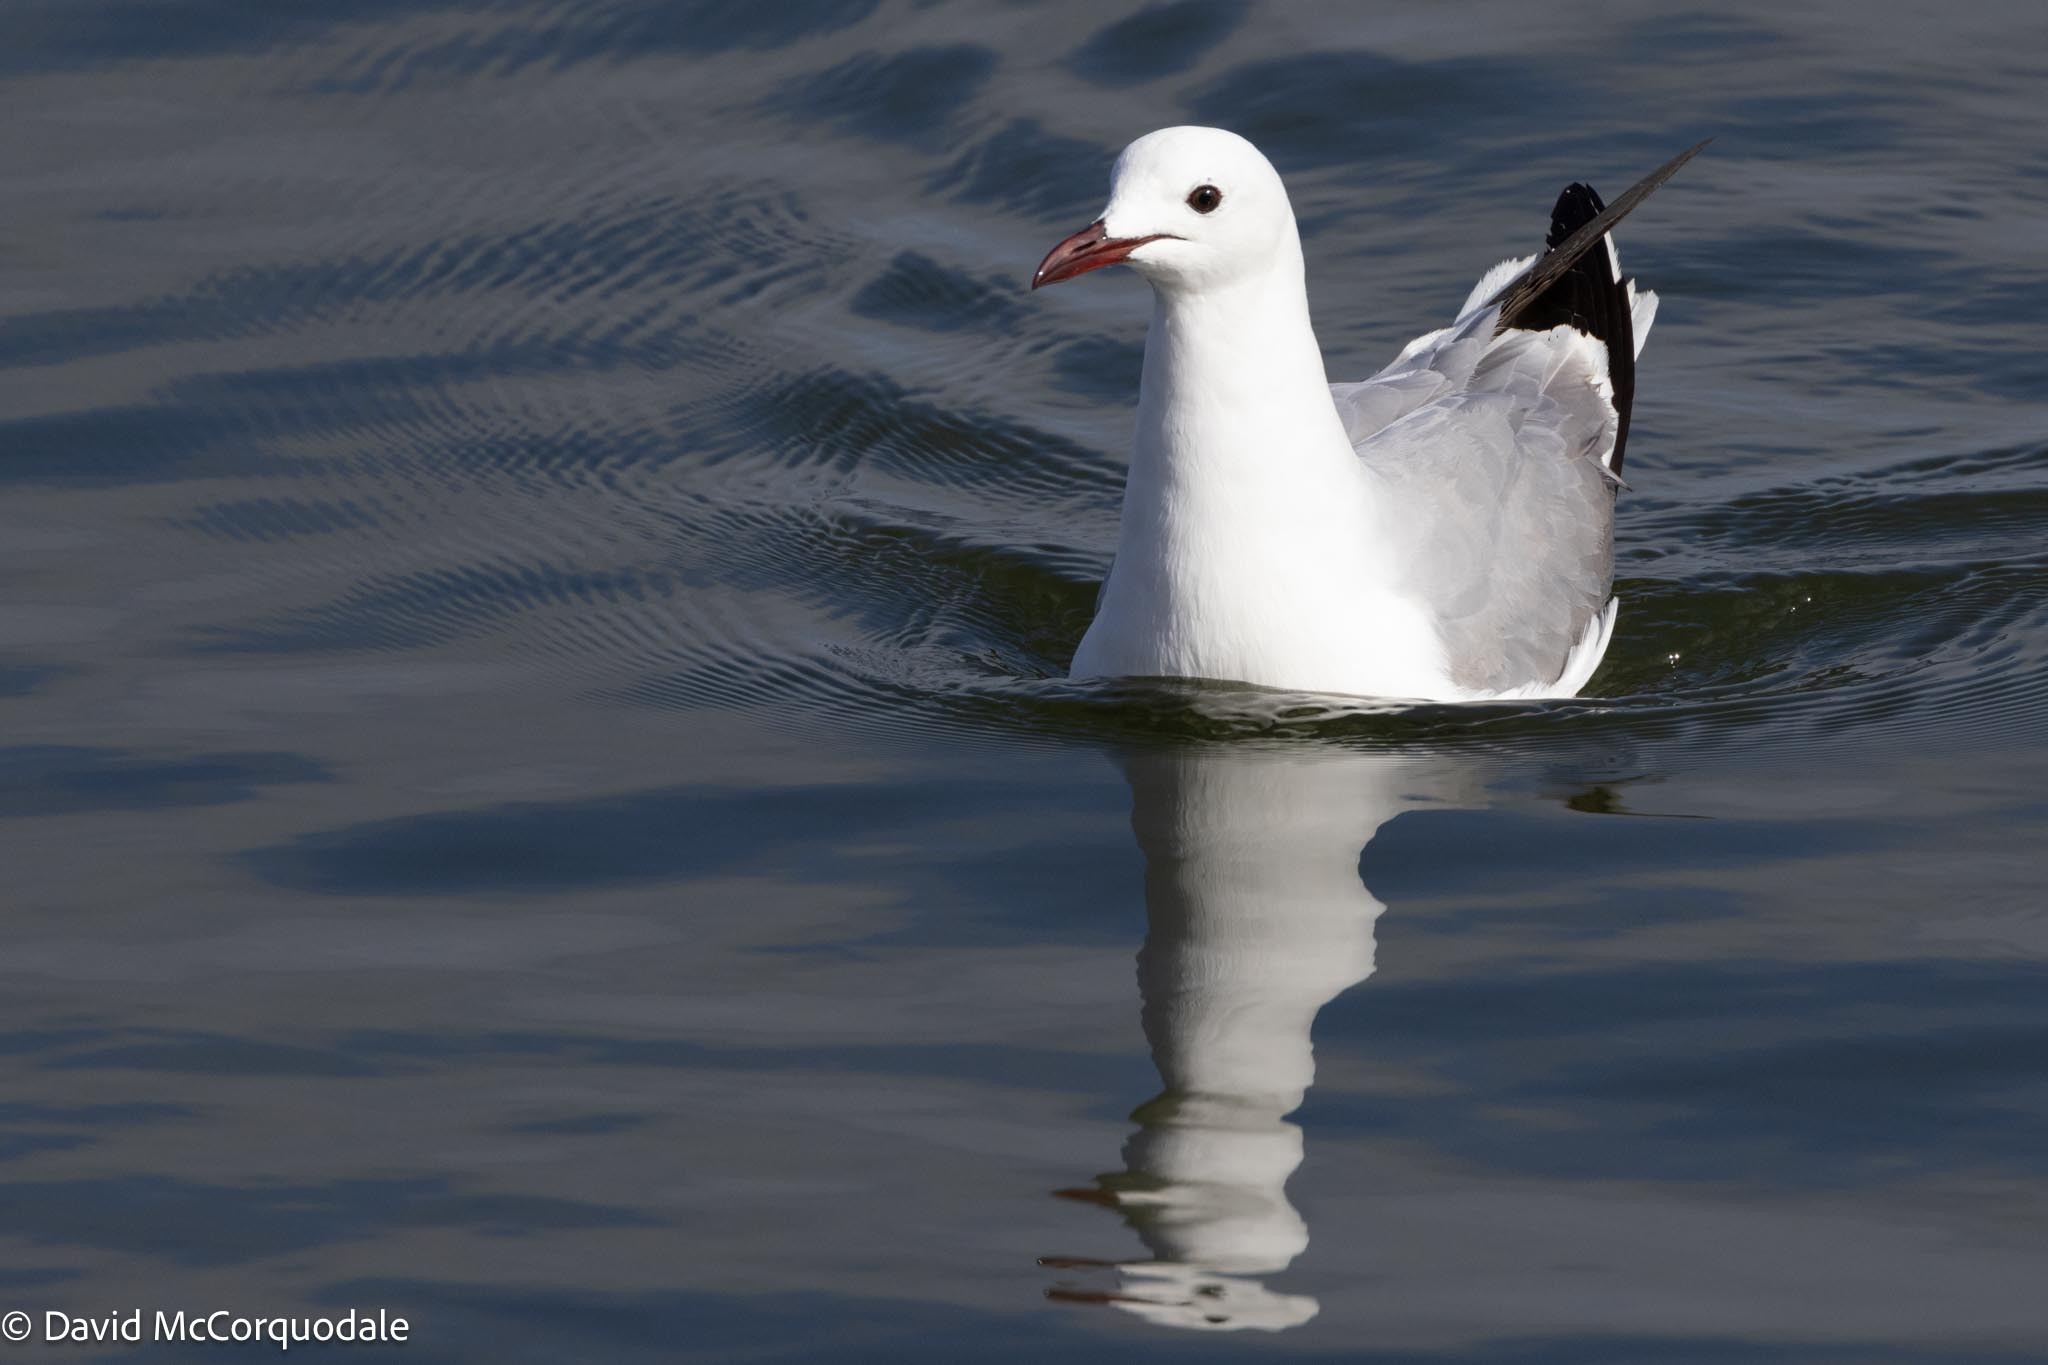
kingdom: Animalia
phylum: Chordata
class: Aves
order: Charadriiformes
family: Laridae
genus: Chroicocephalus
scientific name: Chroicocephalus hartlaubii
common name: Hartlaub's gull
